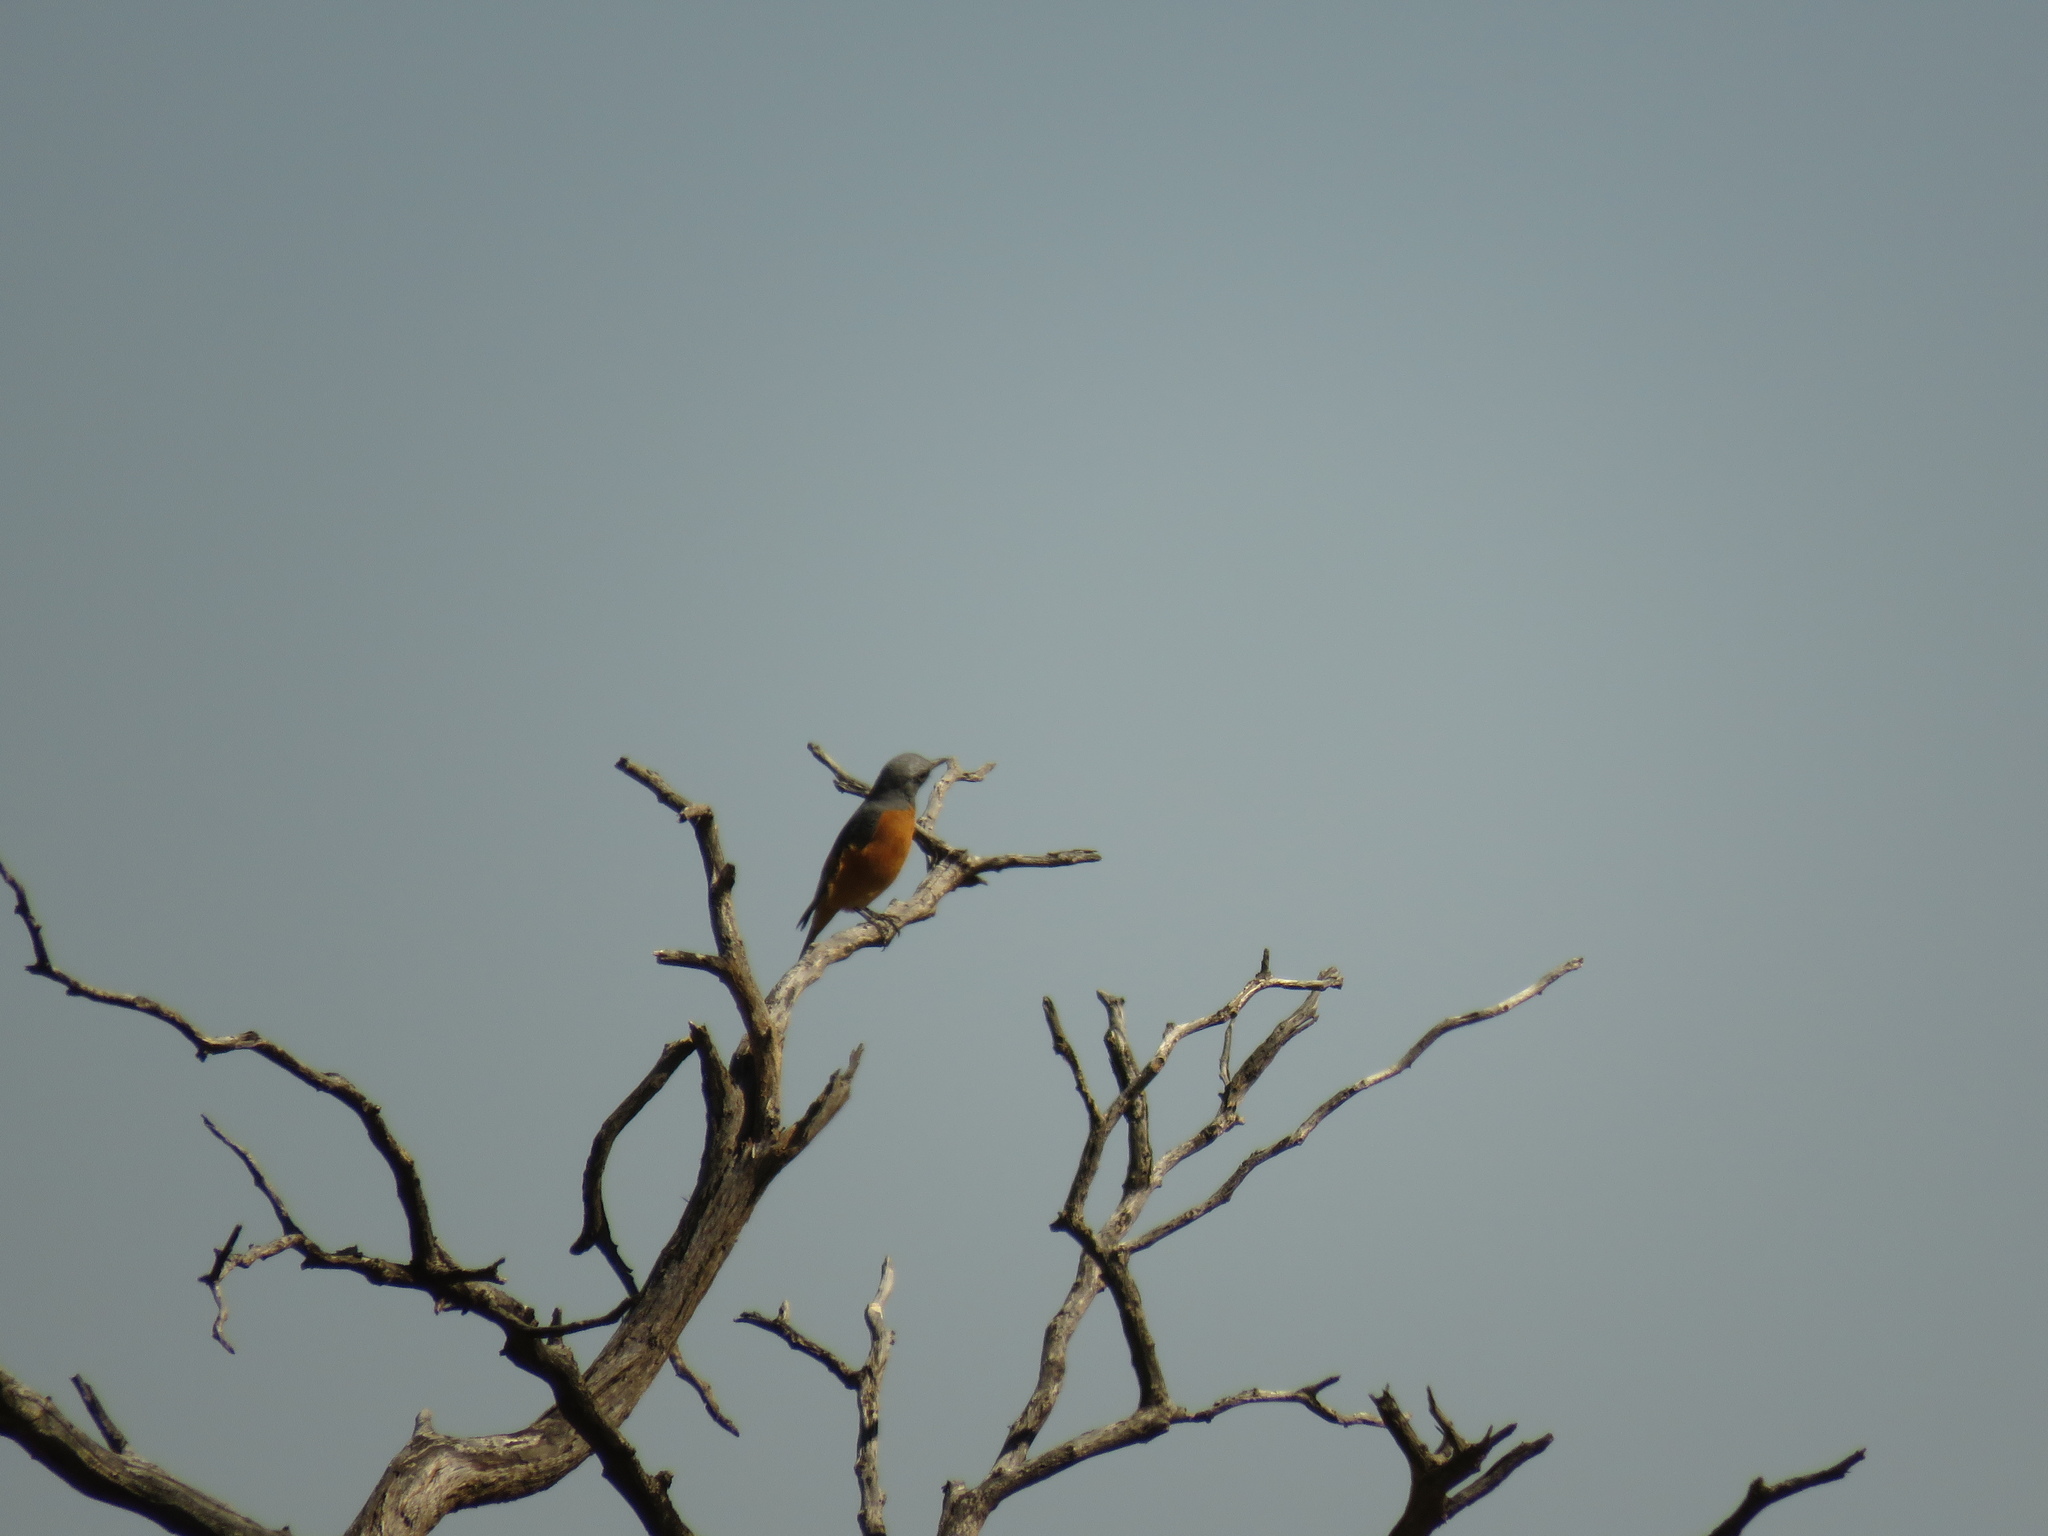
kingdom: Animalia
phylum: Chordata
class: Aves
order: Passeriformes
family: Muscicapidae
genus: Monticola
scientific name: Monticola brevipes
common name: Short-toed rock thrush
